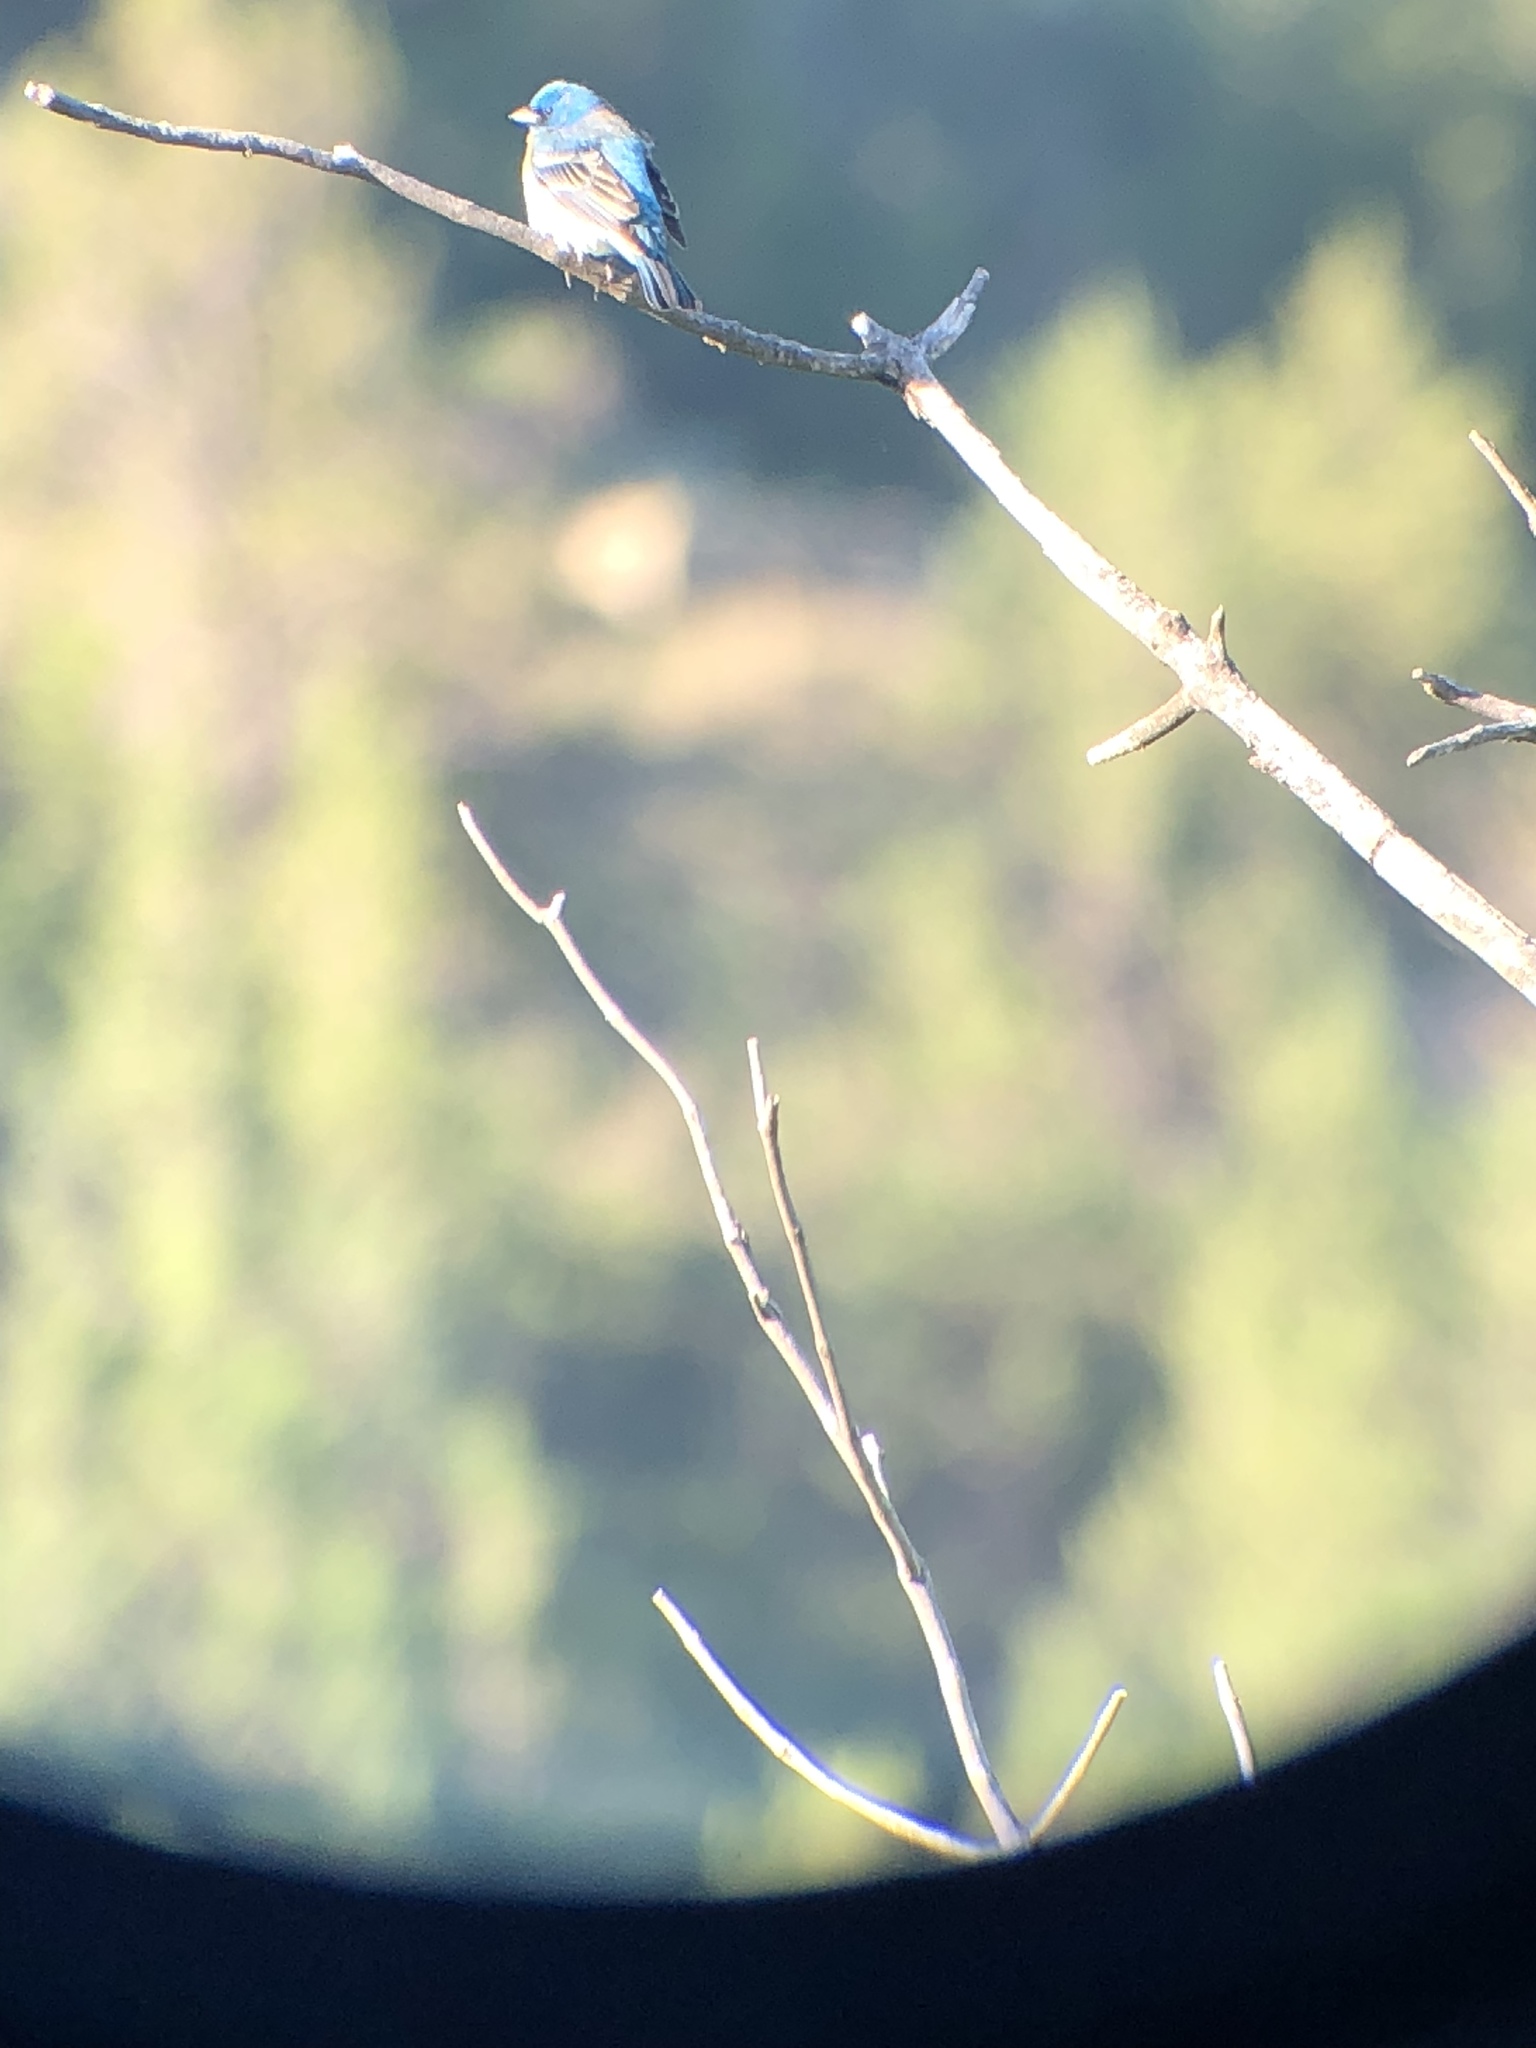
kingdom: Animalia
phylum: Chordata
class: Aves
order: Passeriformes
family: Cardinalidae
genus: Passerina
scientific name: Passerina amoena
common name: Lazuli bunting
